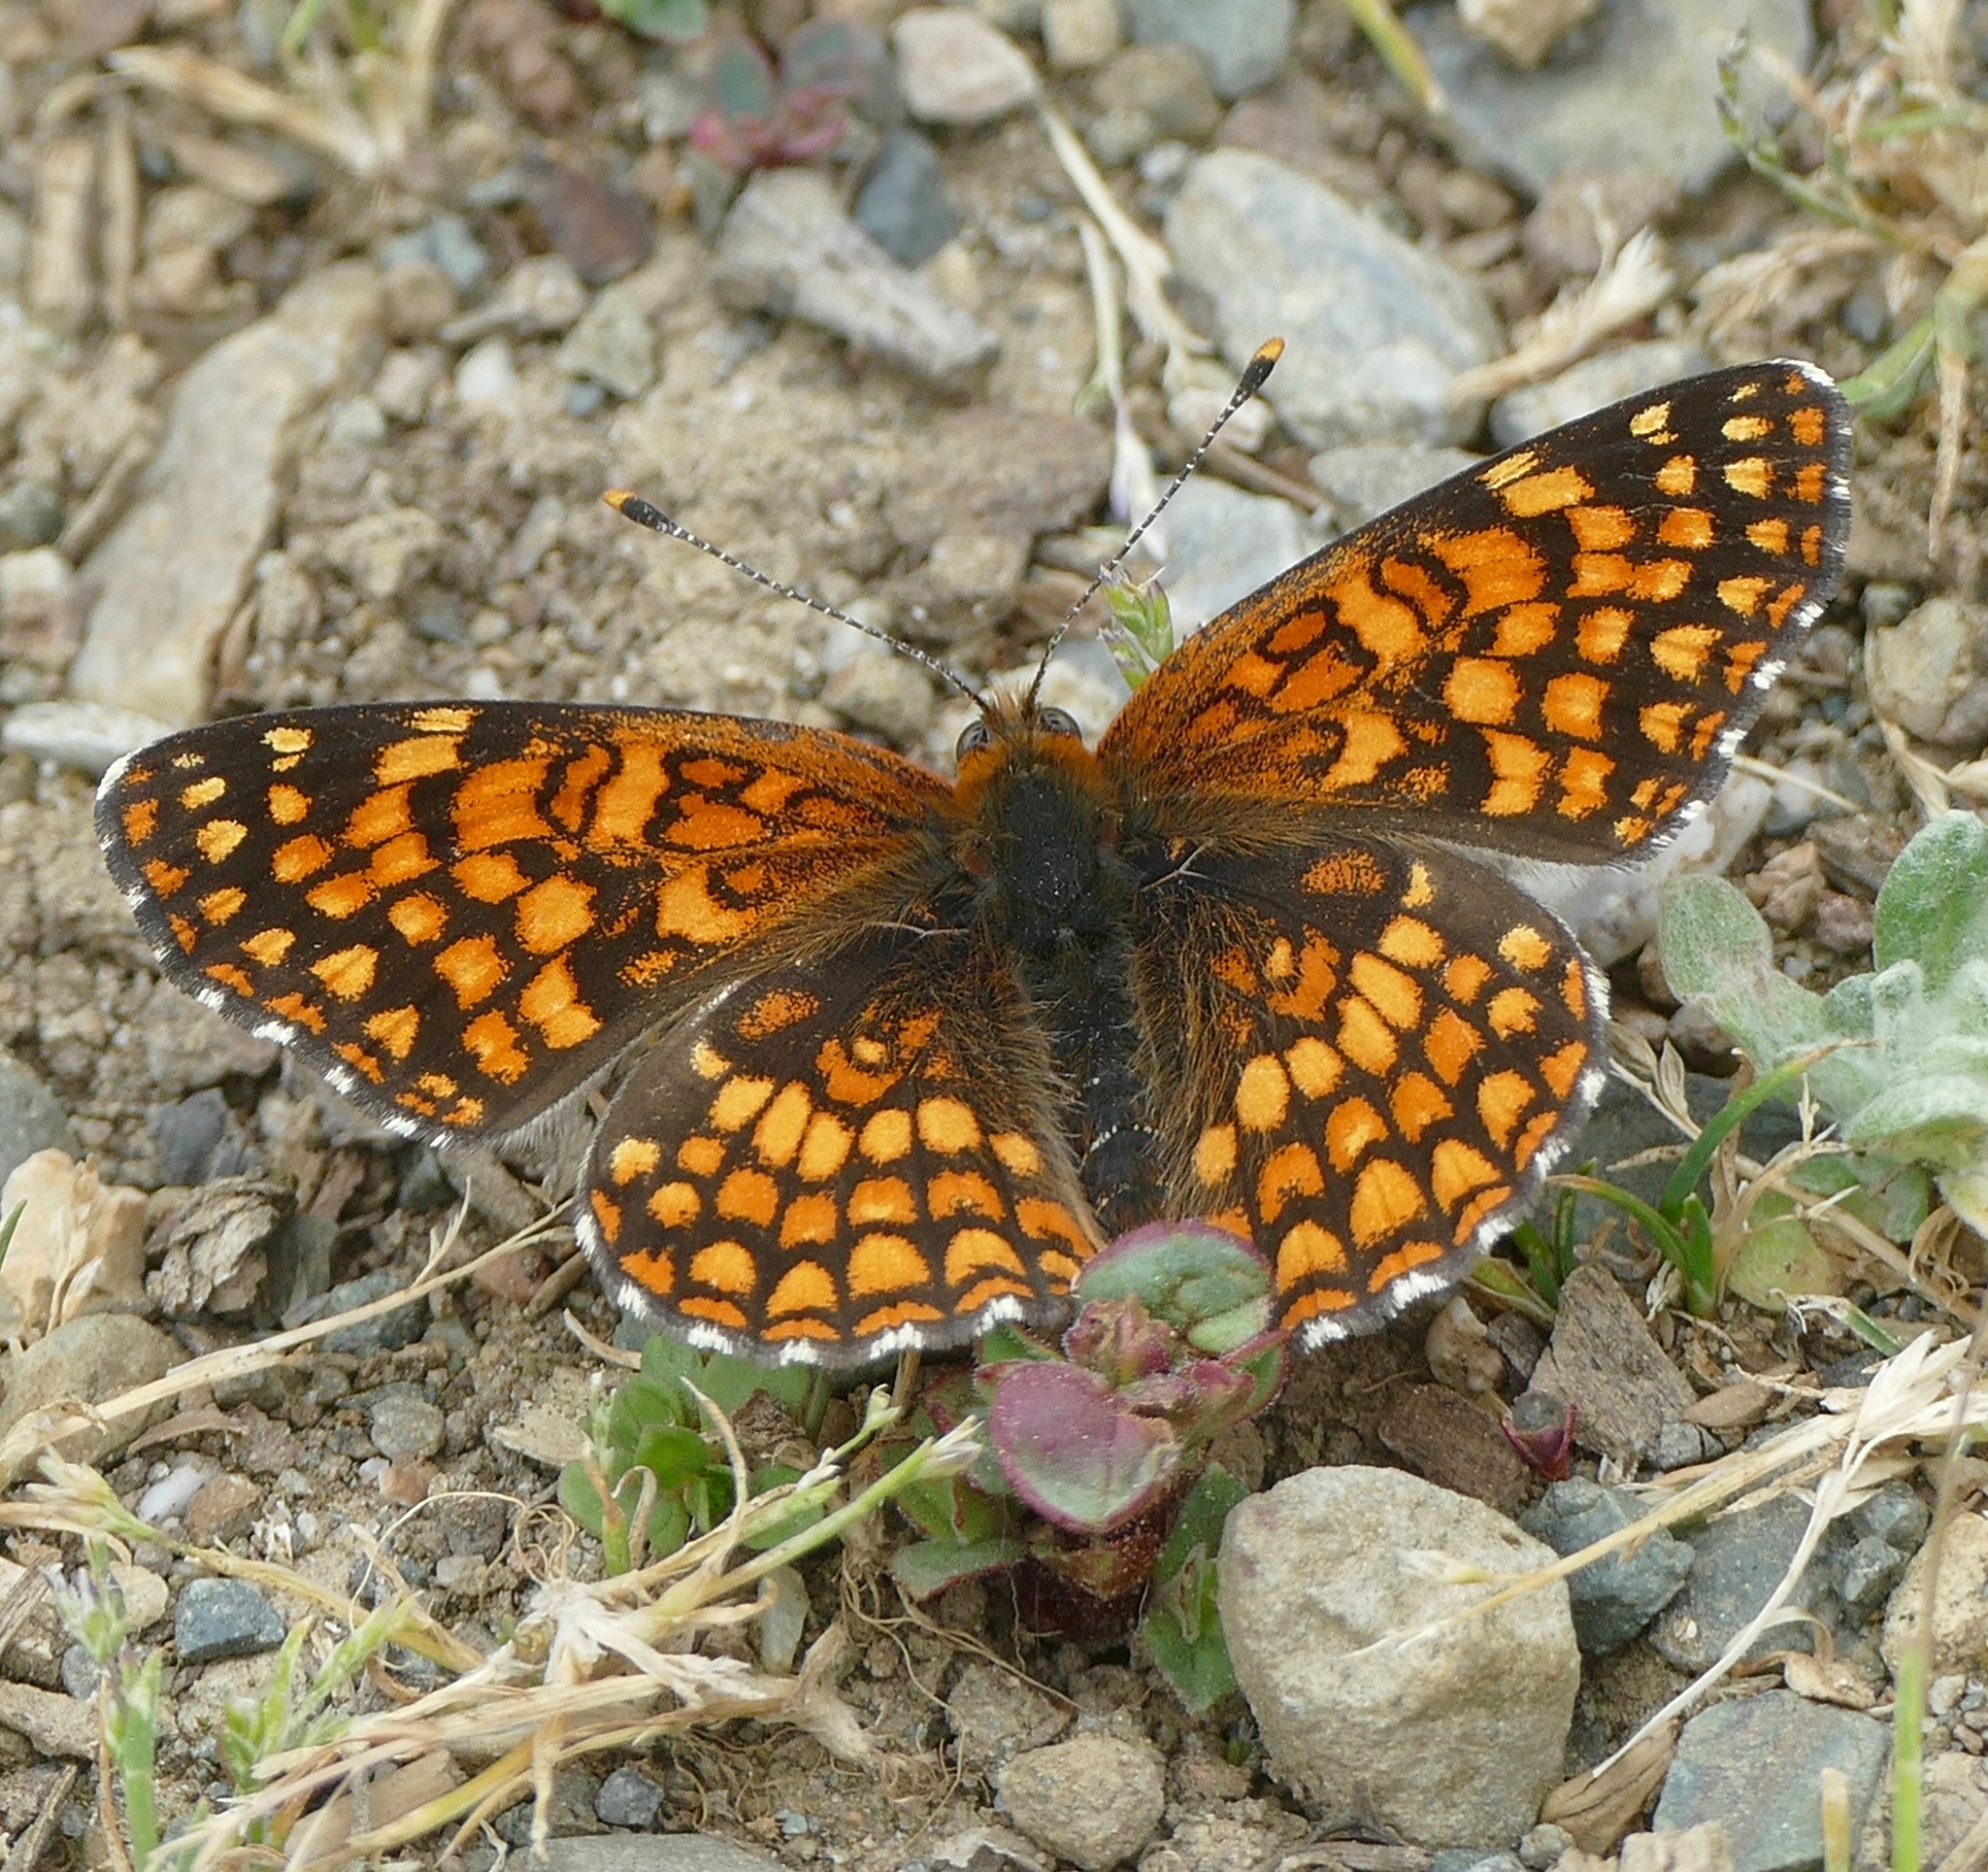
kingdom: Animalia
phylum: Arthropoda
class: Insecta
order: Lepidoptera
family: Nymphalidae
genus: Chlosyne
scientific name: Chlosyne palla
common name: Northern checkerspot
